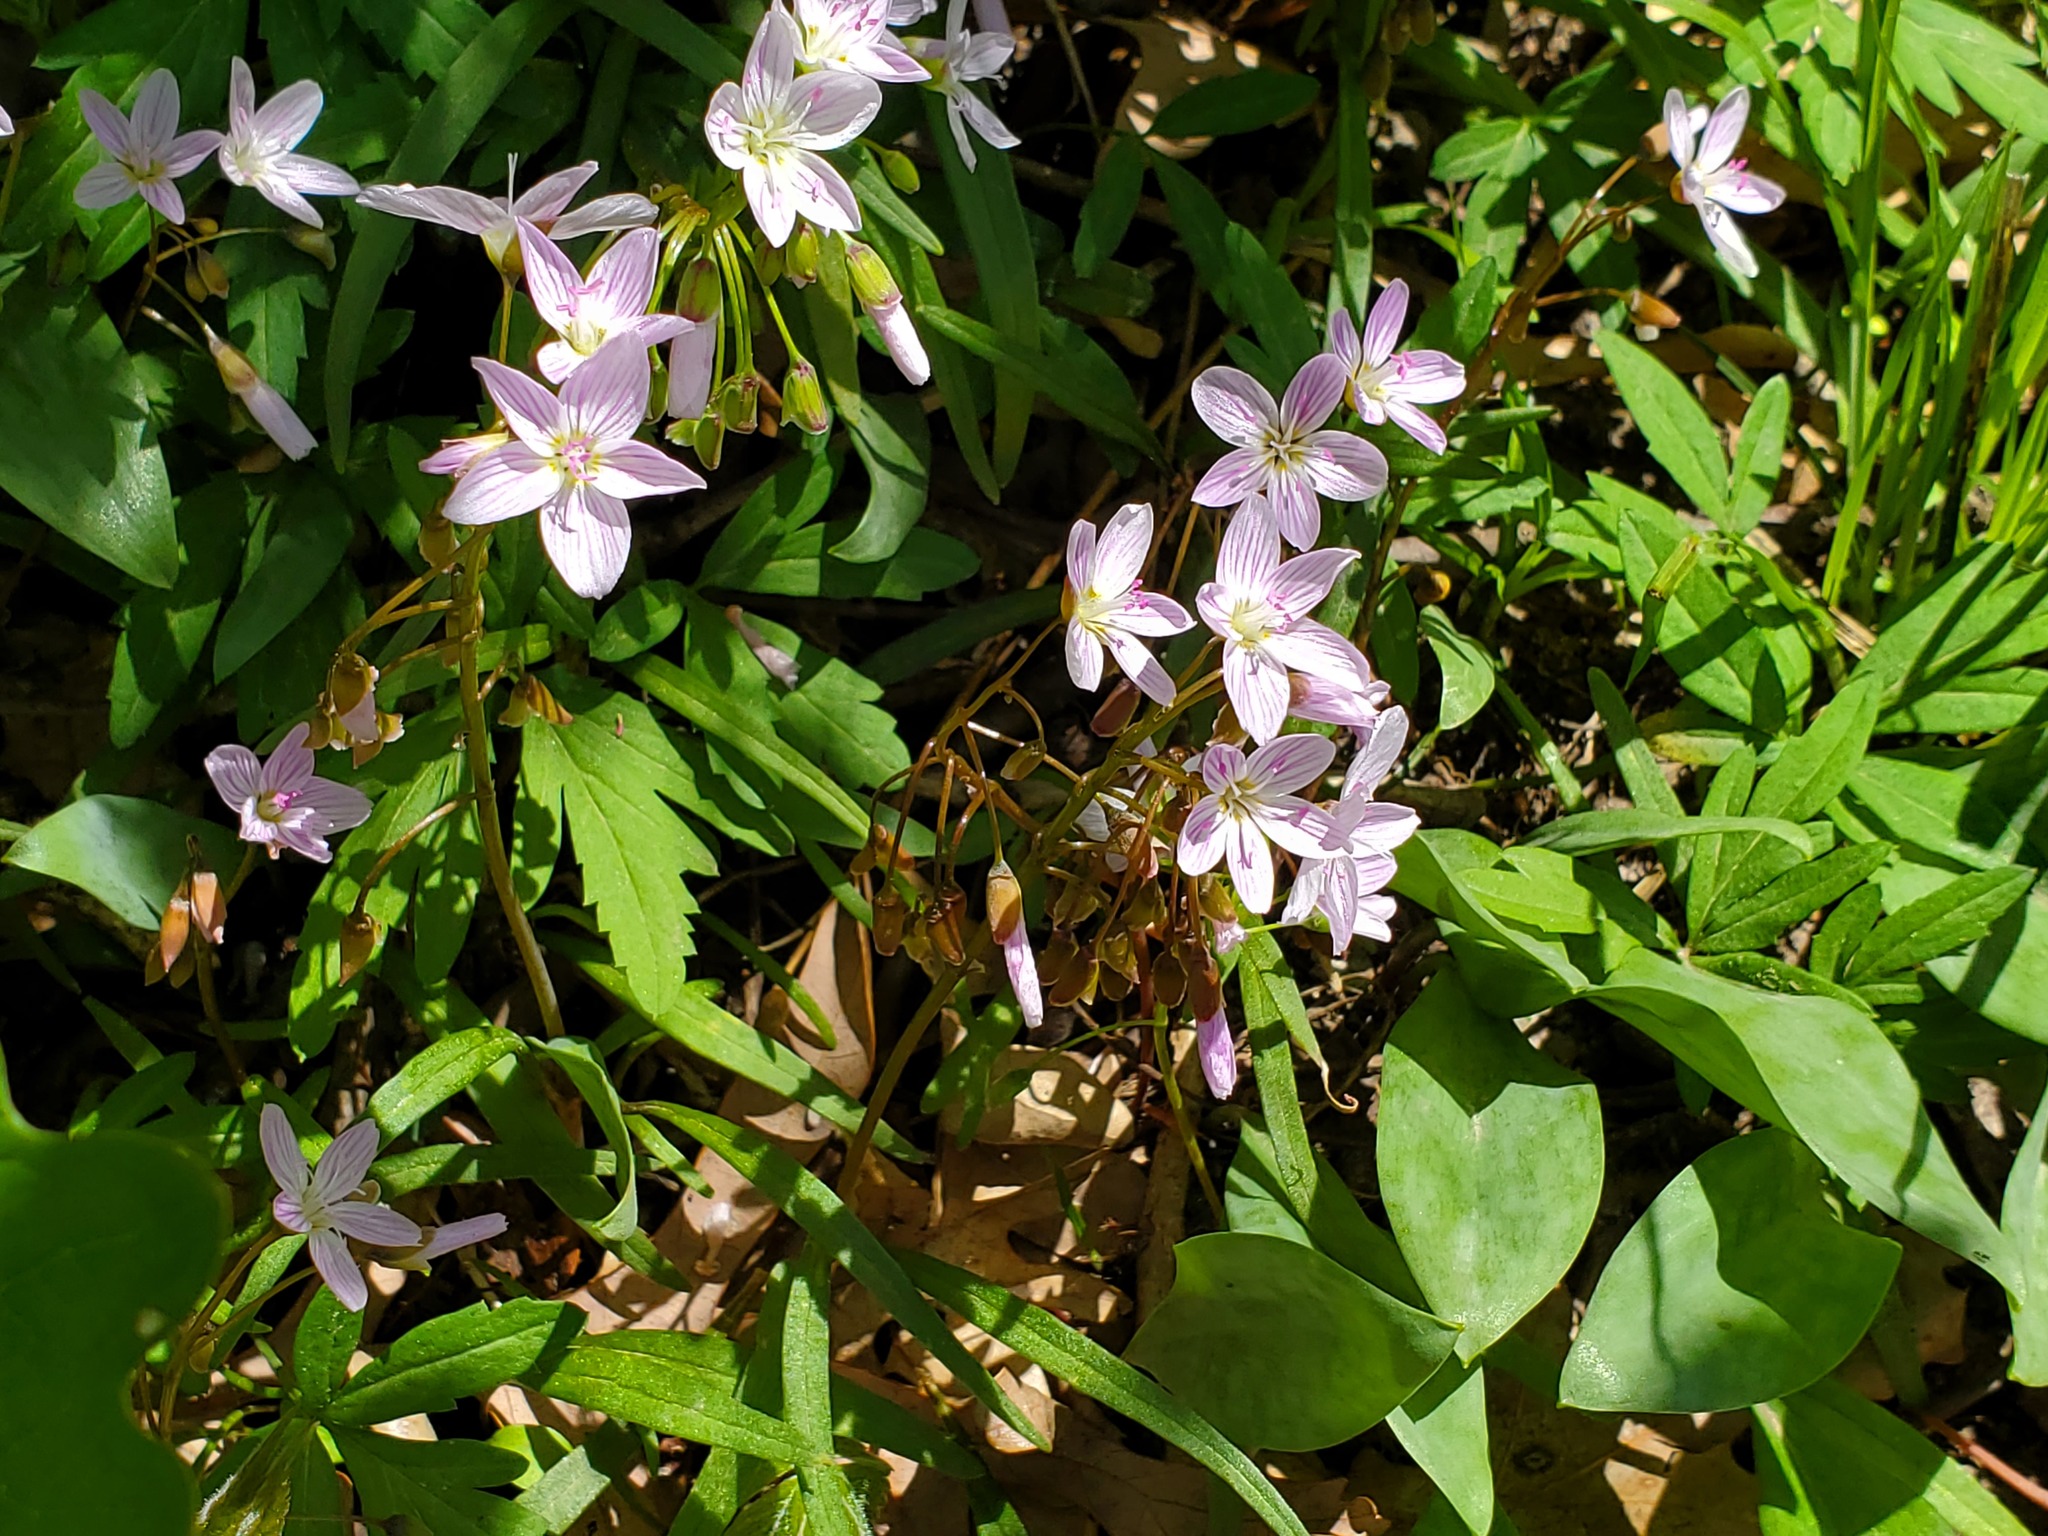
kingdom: Plantae
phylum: Tracheophyta
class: Magnoliopsida
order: Caryophyllales
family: Montiaceae
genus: Claytonia
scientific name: Claytonia virginica
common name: Virginia springbeauty
